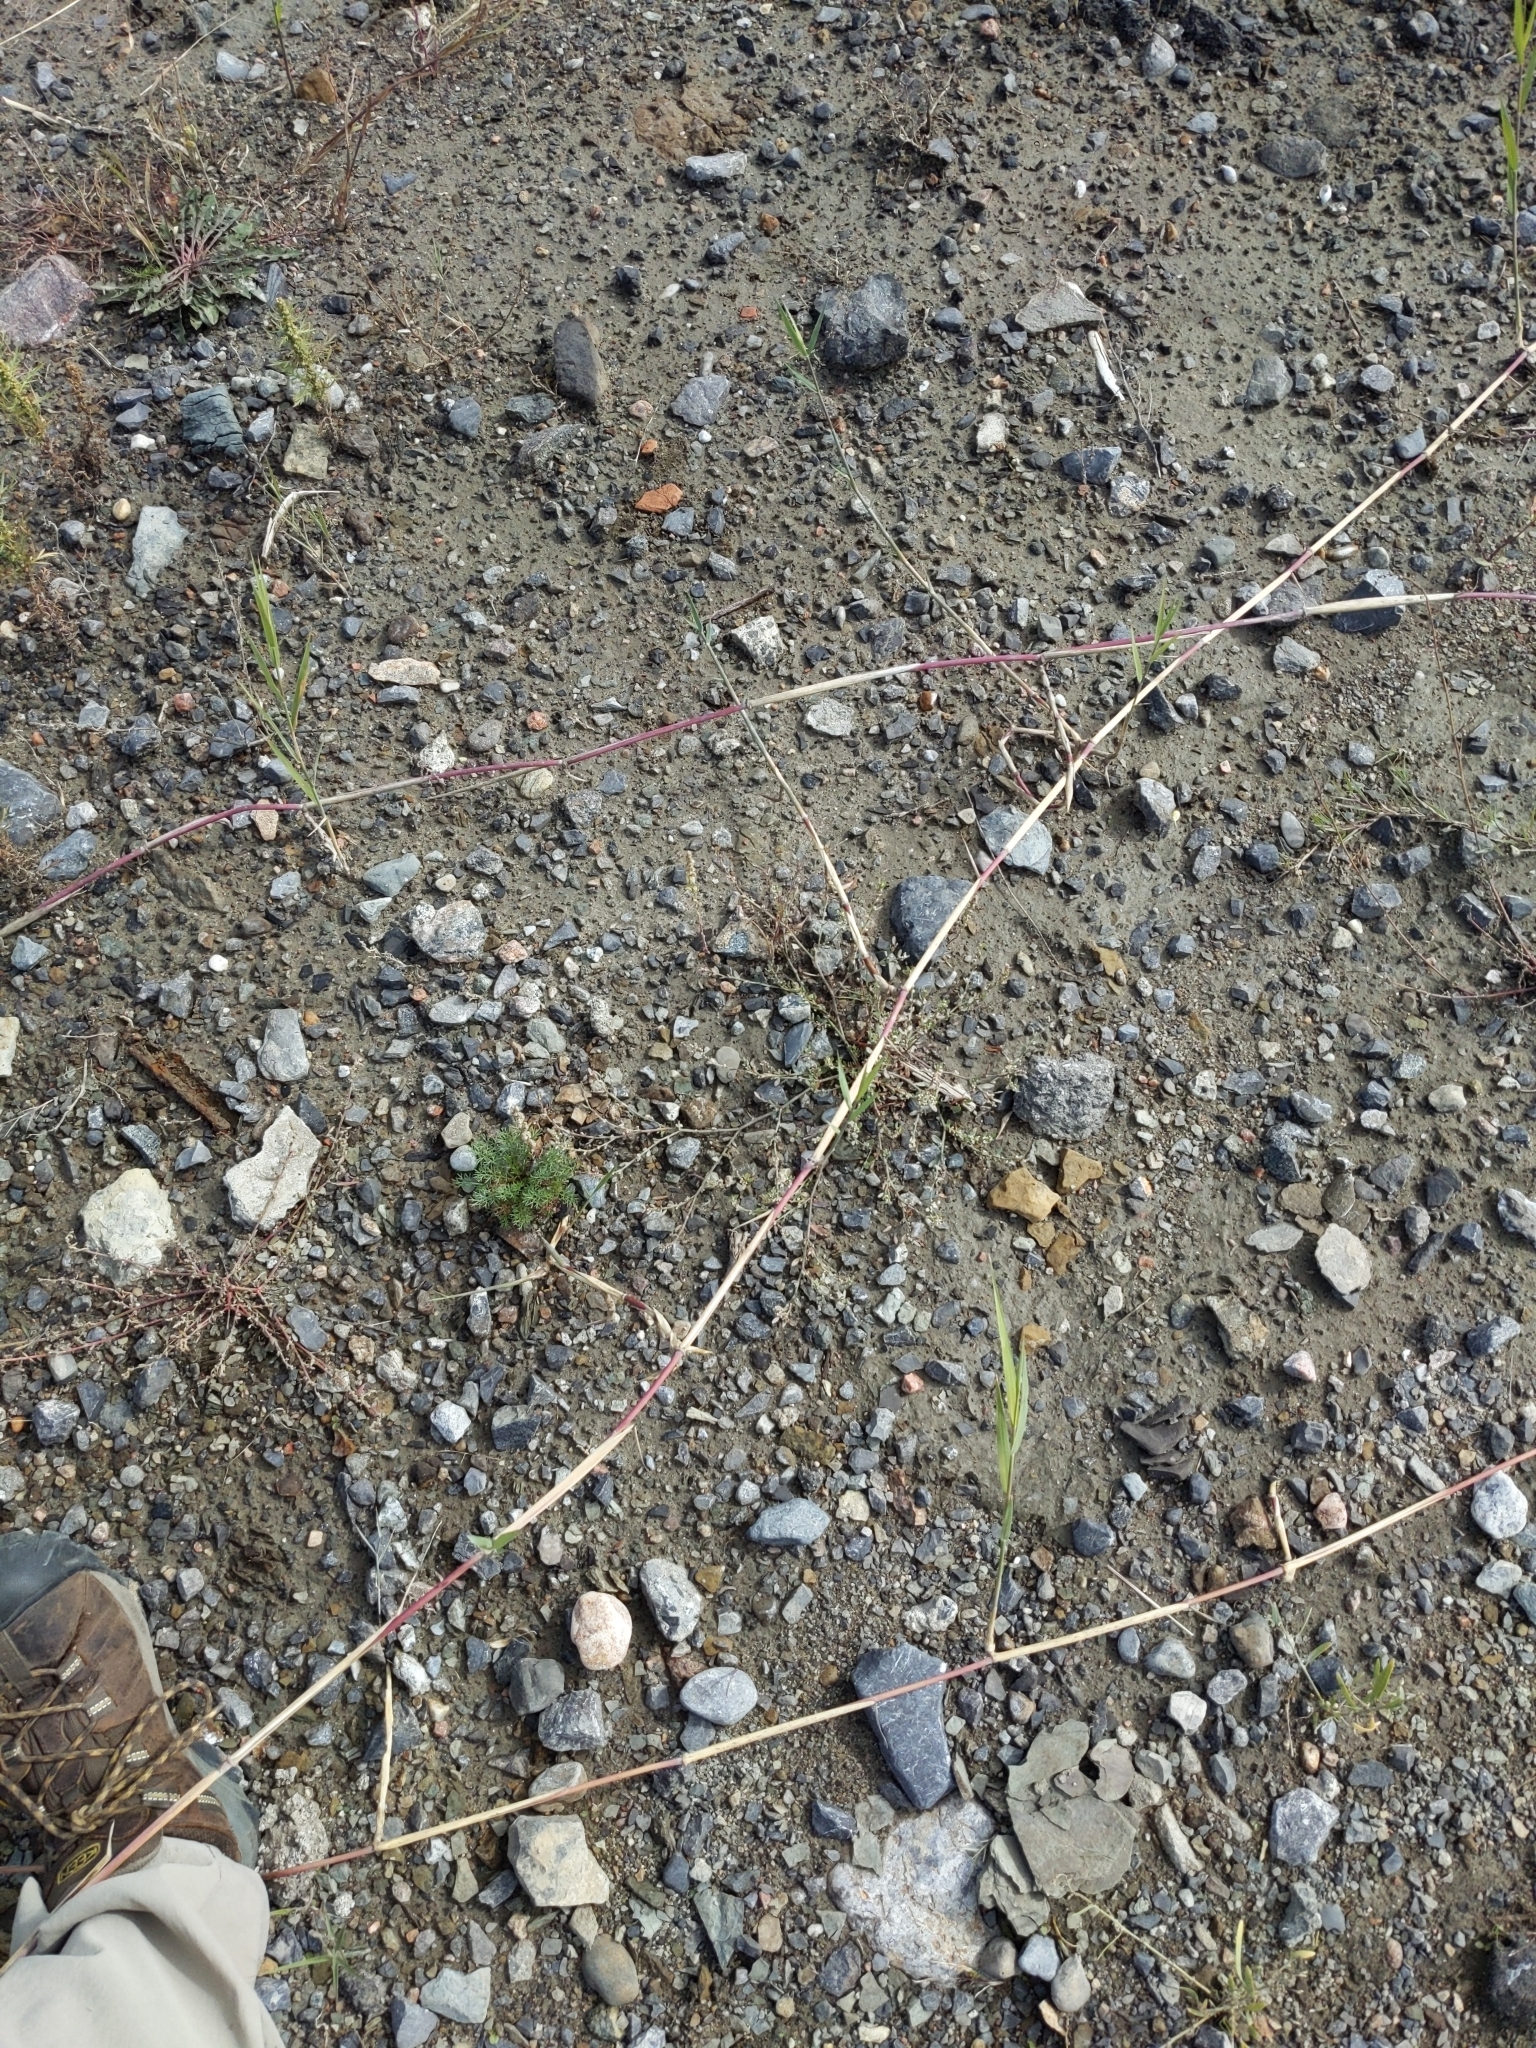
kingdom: Plantae
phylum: Tracheophyta
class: Liliopsida
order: Poales
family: Poaceae
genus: Phragmites
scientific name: Phragmites australis
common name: Common reed
